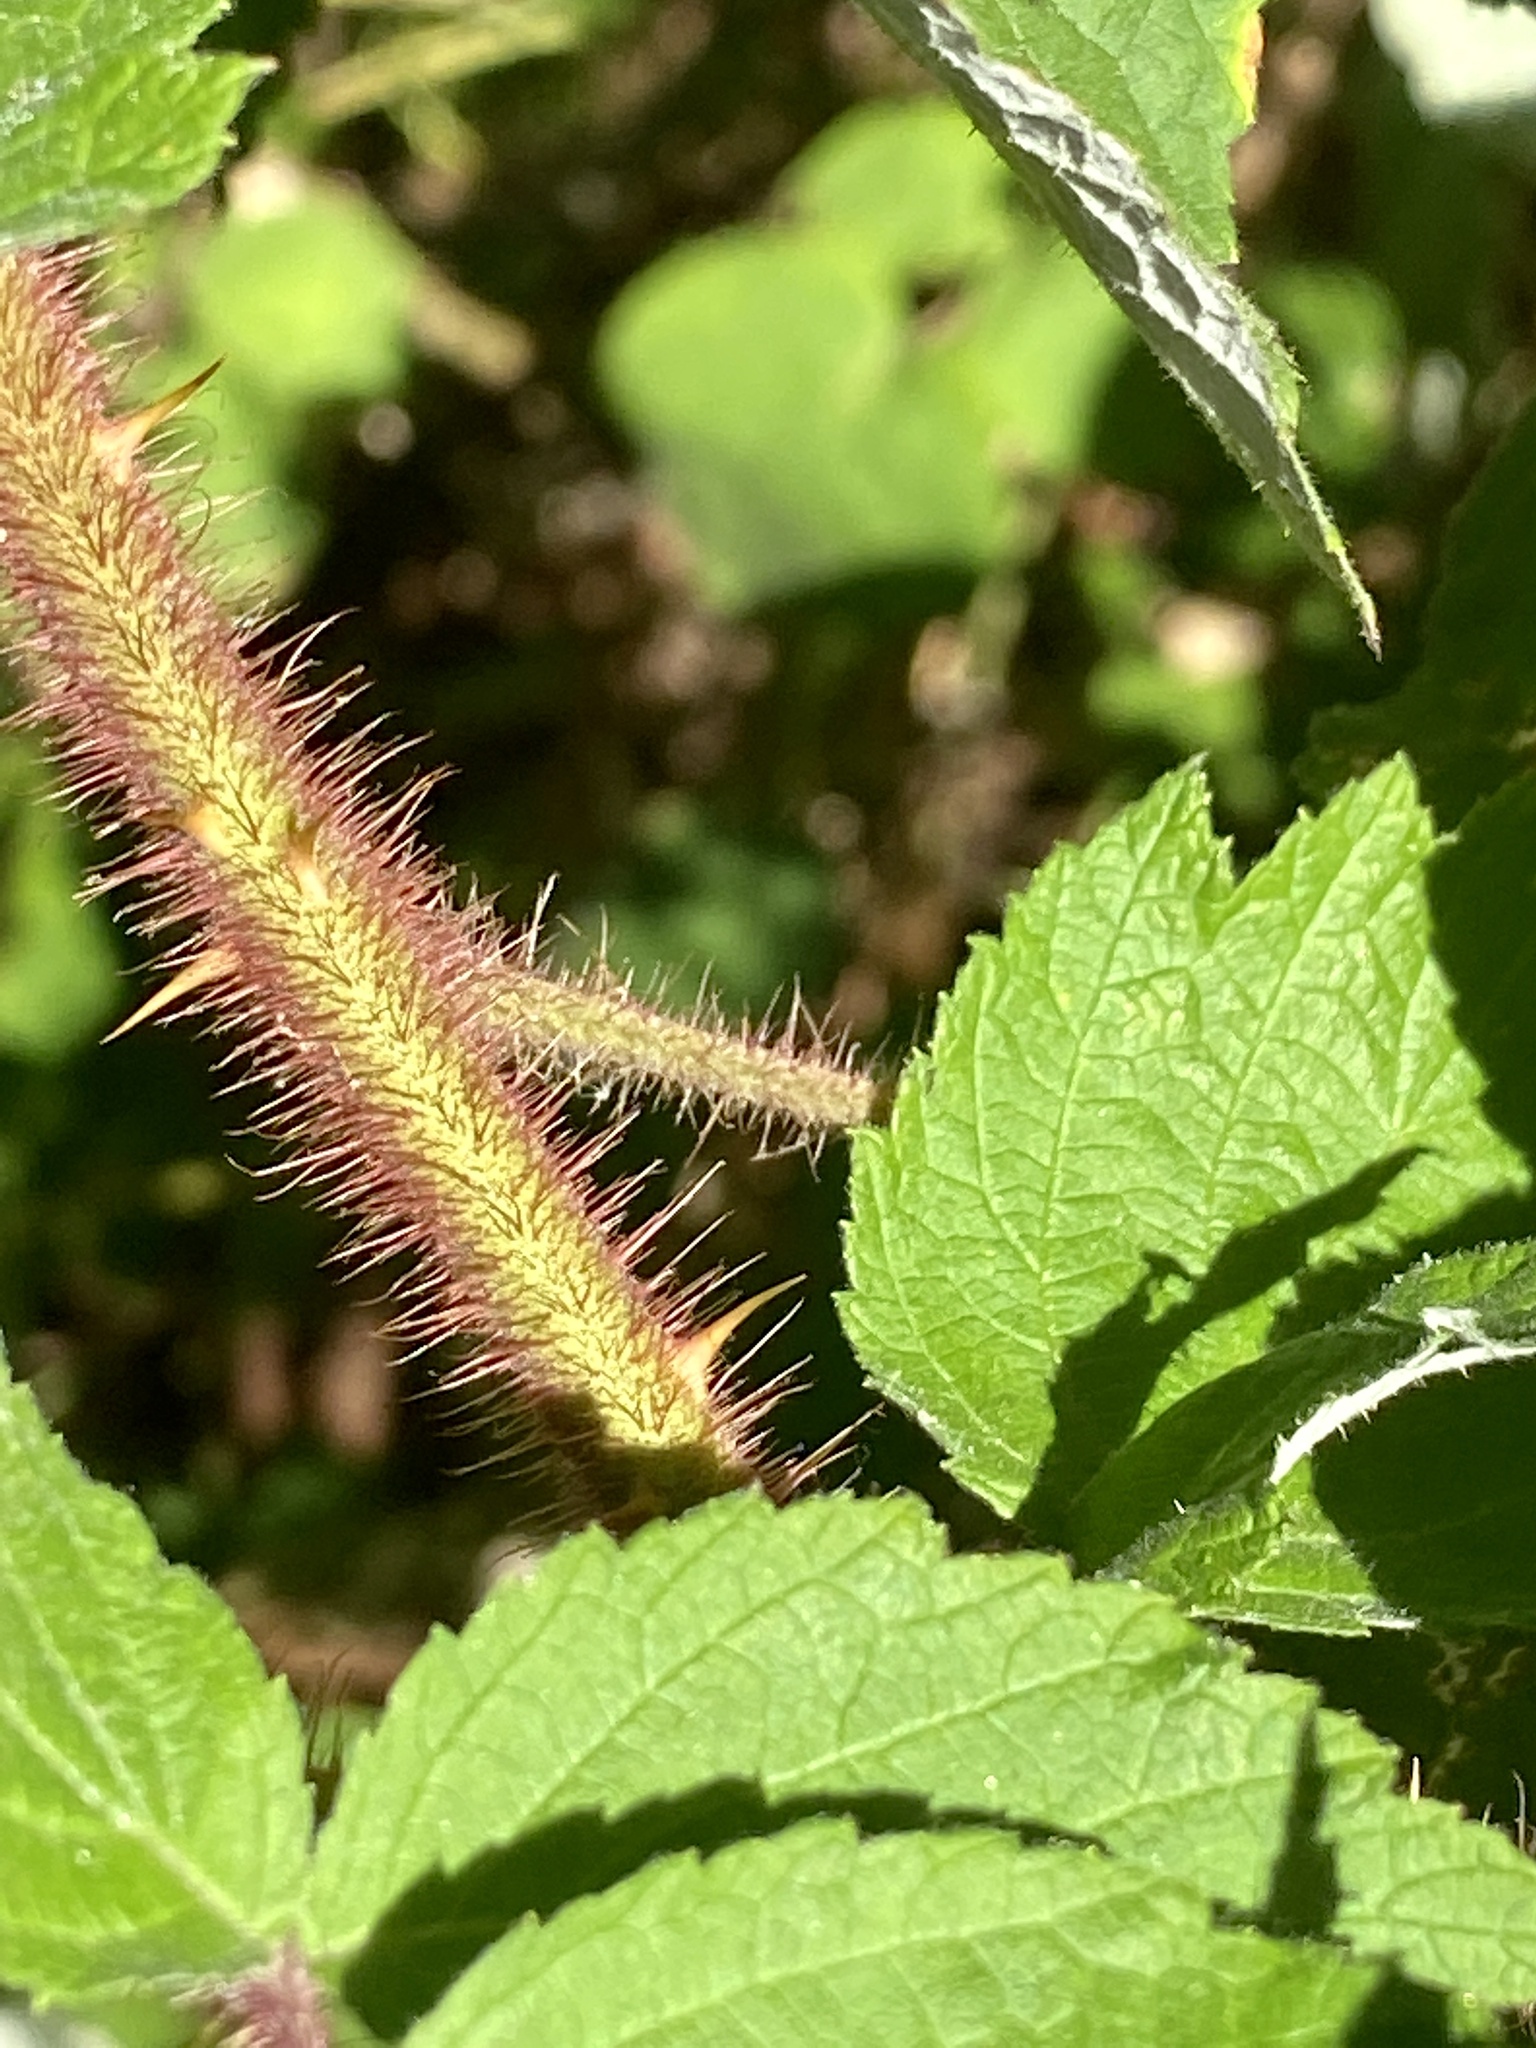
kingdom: Plantae
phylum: Tracheophyta
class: Magnoliopsida
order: Rosales
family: Rosaceae
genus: Rubus
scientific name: Rubus phoenicolasius
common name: Japanese wineberry
